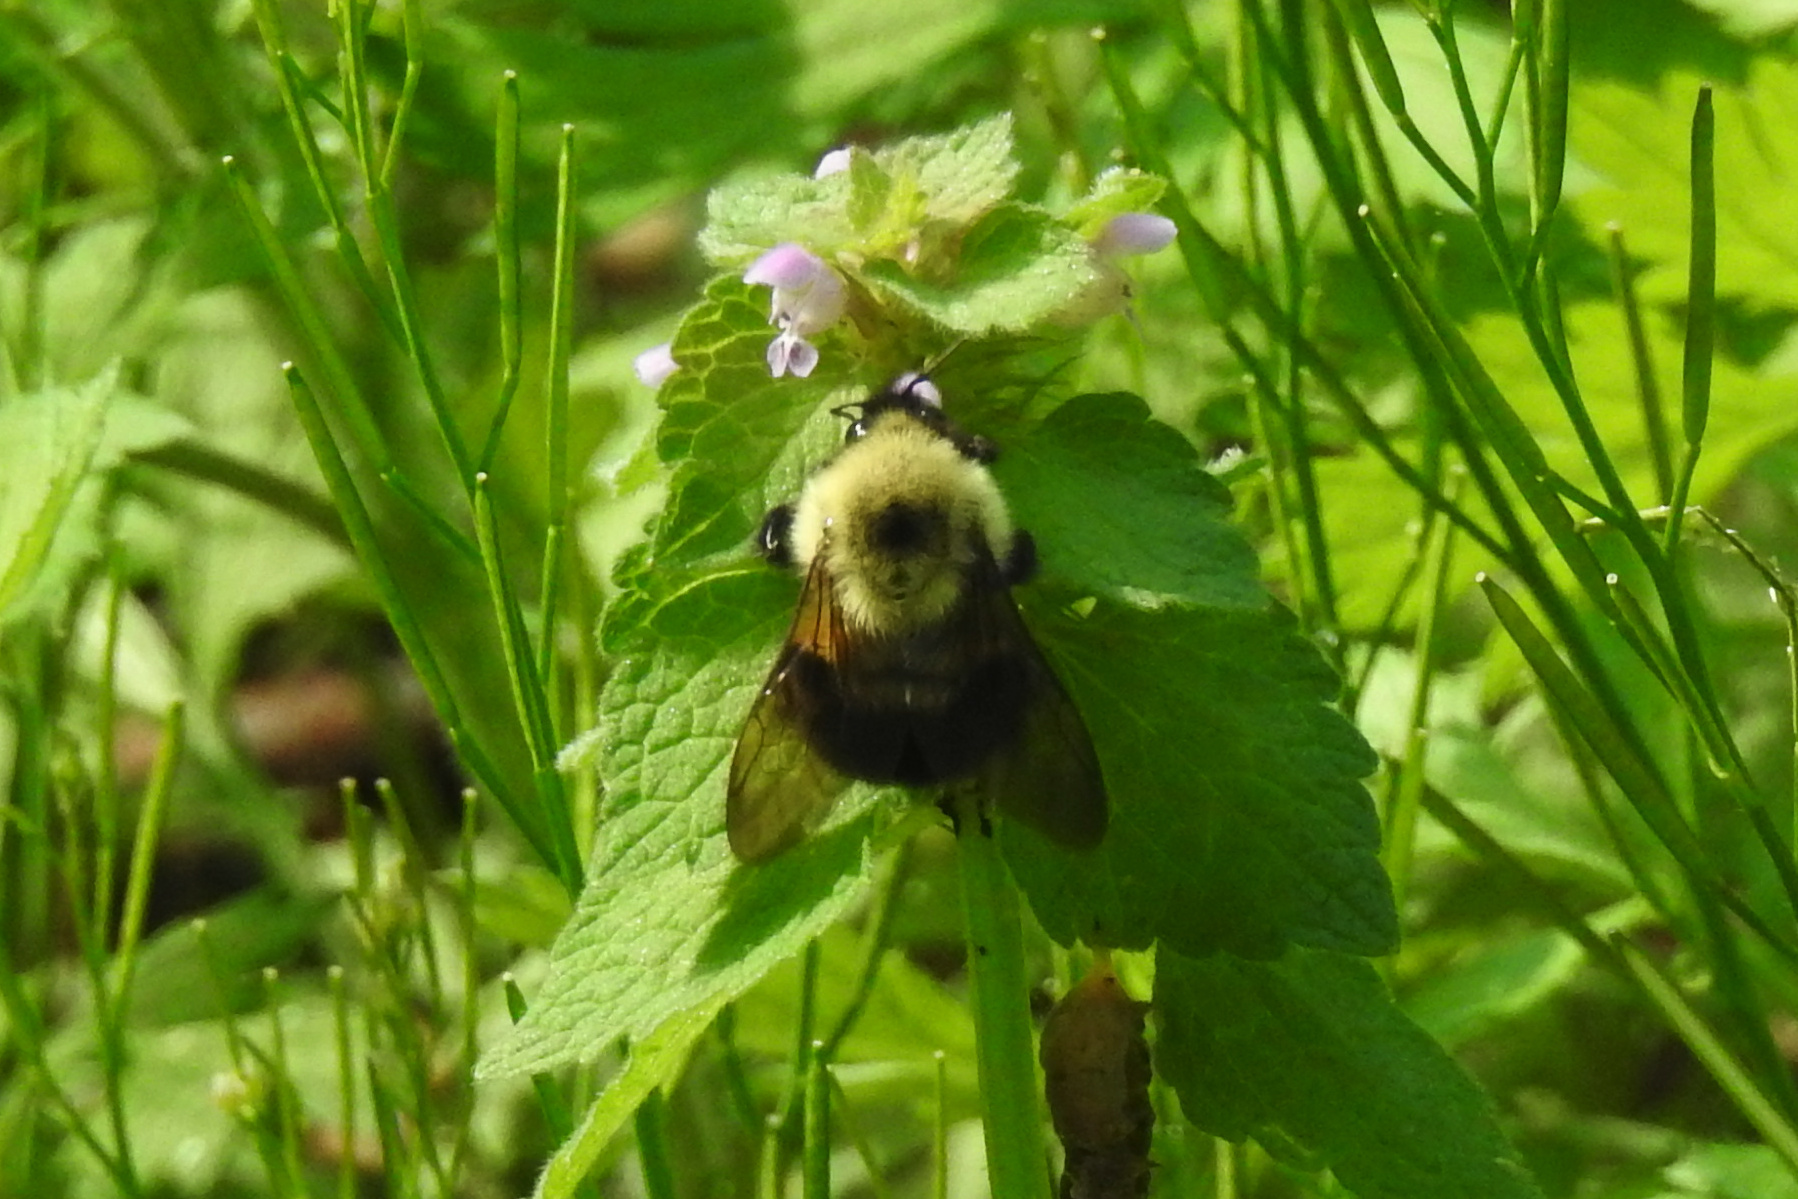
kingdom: Animalia
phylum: Arthropoda
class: Insecta
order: Hymenoptera
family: Apidae
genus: Bombus
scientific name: Bombus bimaculatus
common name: Two-spotted bumble bee
